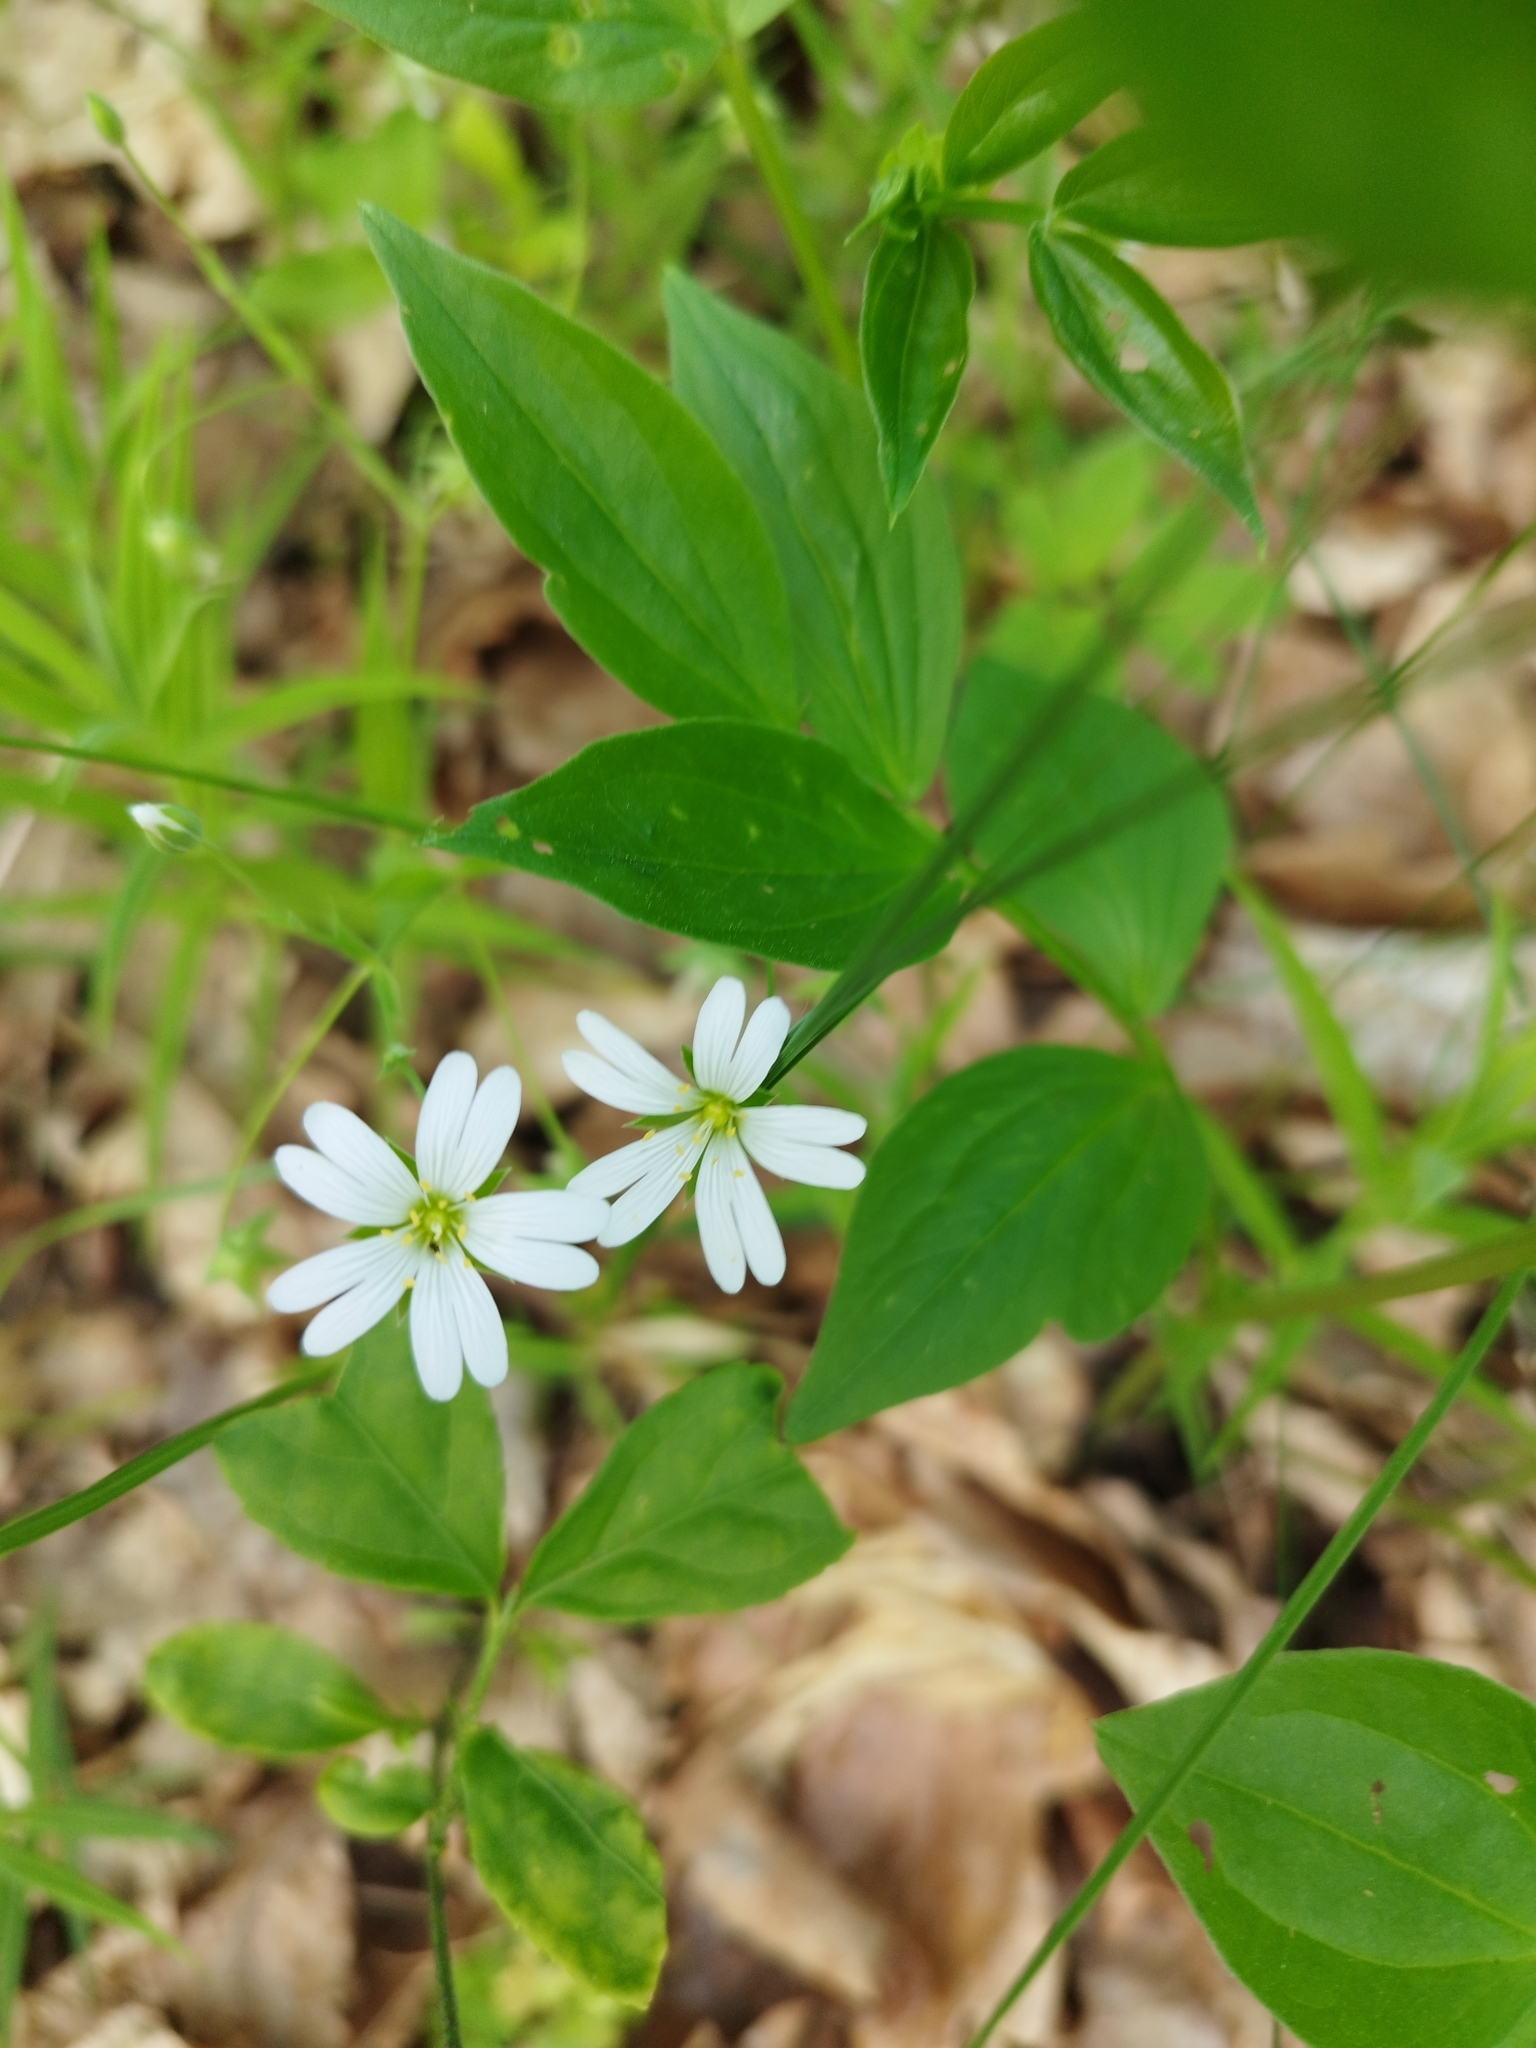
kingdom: Plantae
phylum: Tracheophyta
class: Magnoliopsida
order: Caryophyllales
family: Caryophyllaceae
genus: Rabelera
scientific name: Rabelera holostea
